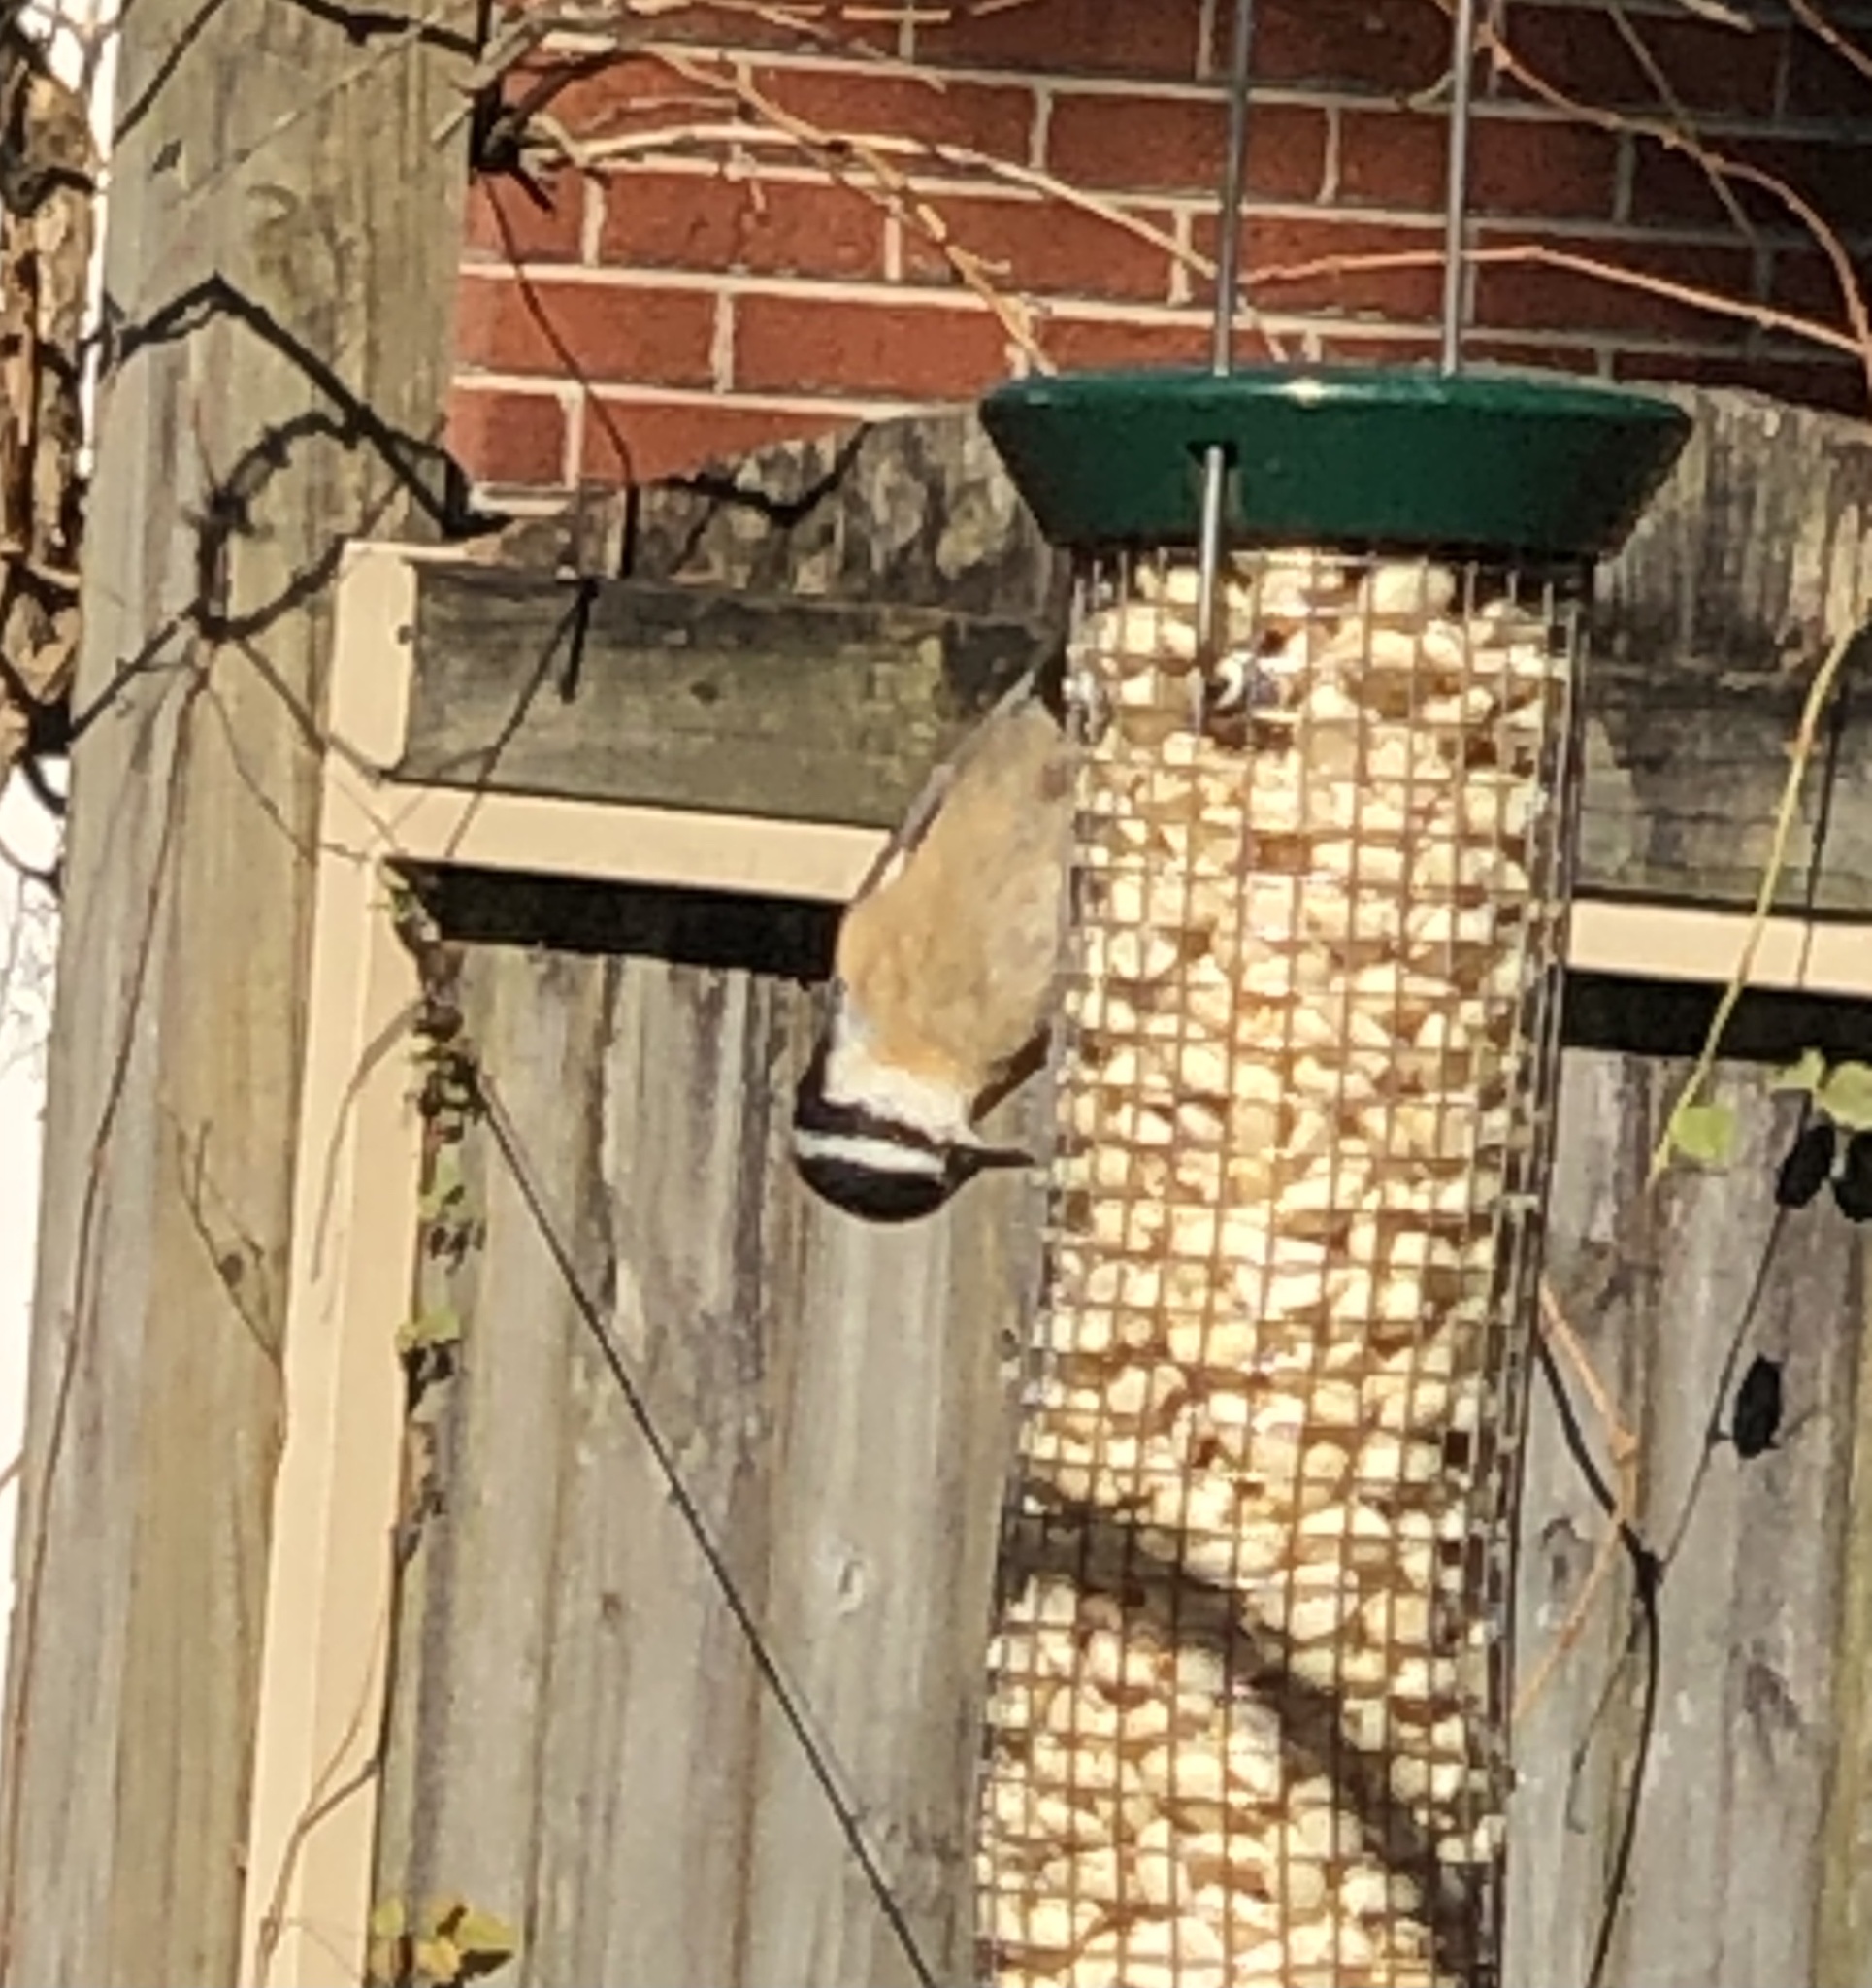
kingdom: Animalia
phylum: Chordata
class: Aves
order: Passeriformes
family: Sittidae
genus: Sitta
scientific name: Sitta canadensis
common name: Red-breasted nuthatch
